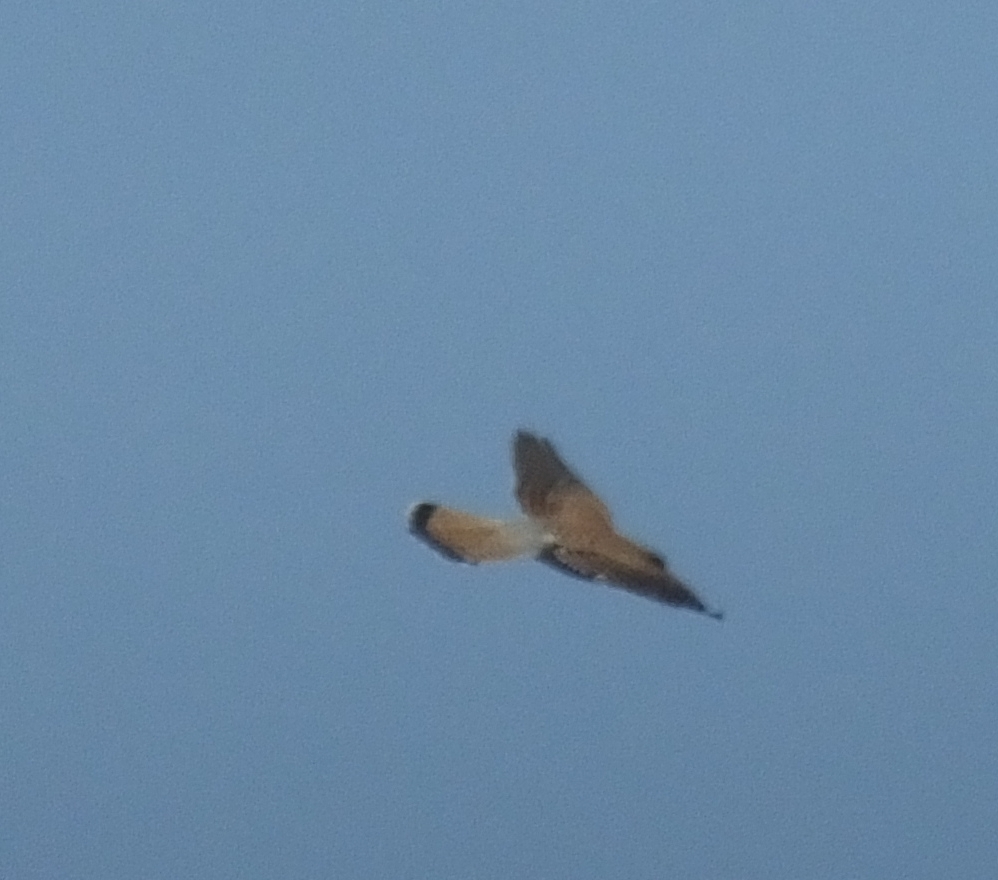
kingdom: Animalia
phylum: Chordata
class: Aves
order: Falconiformes
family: Falconidae
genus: Falco
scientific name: Falco tinnunculus
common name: Common kestrel
